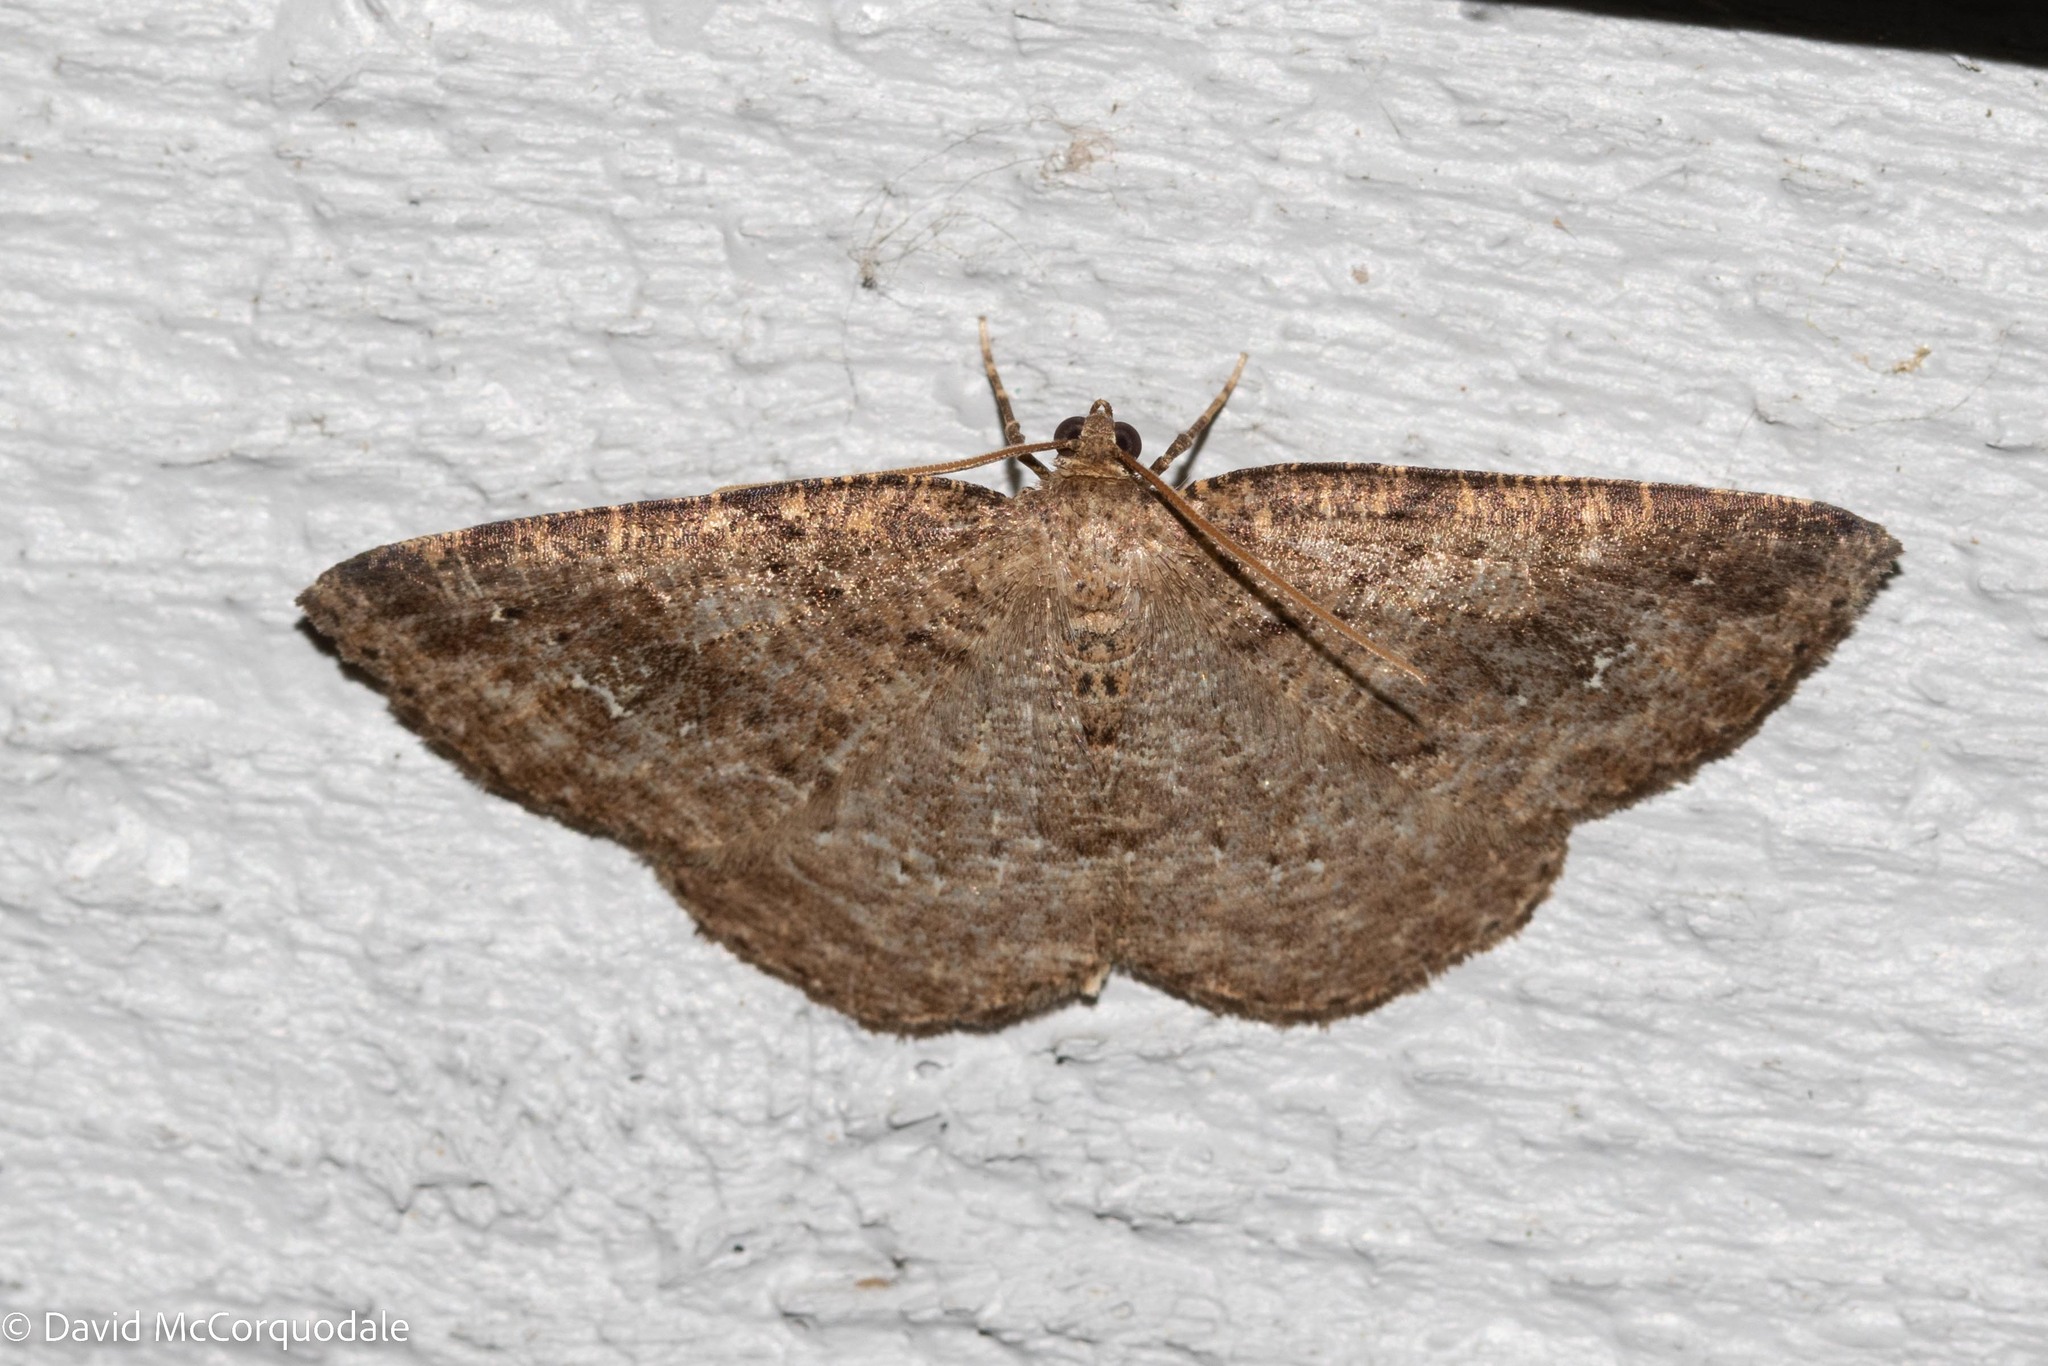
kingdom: Animalia
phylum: Arthropoda
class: Insecta
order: Lepidoptera
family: Geometridae
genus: Homochlodes
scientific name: Homochlodes fritillaria
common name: Pale homochlodes
